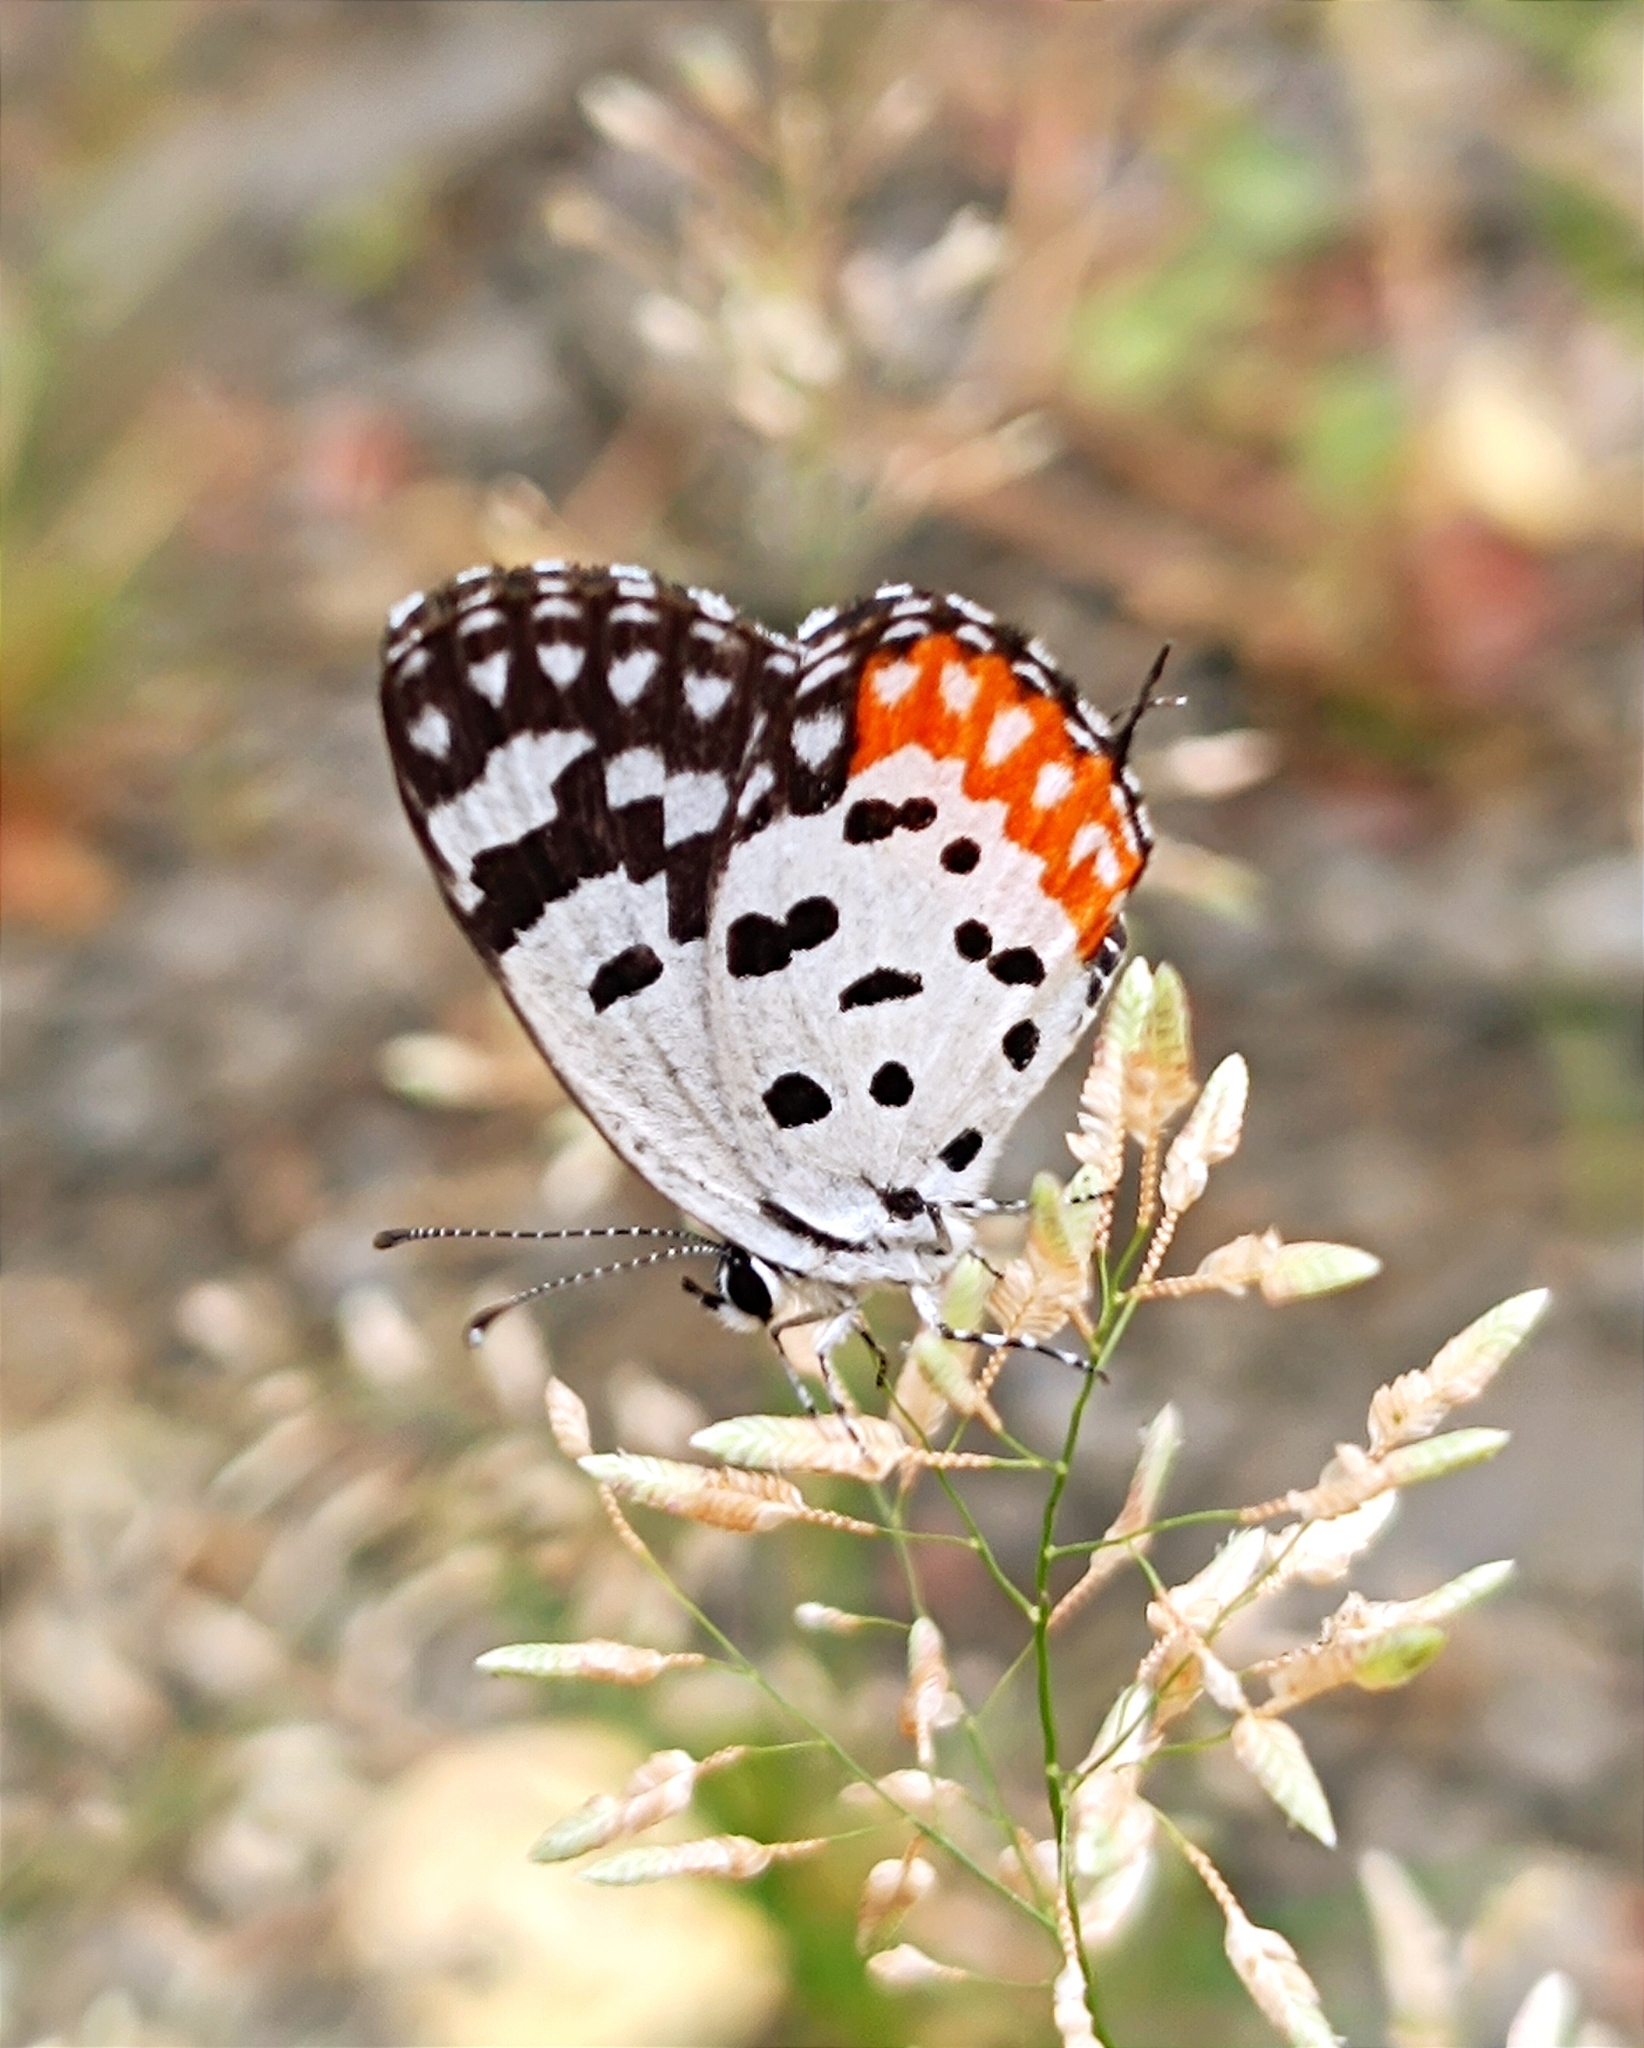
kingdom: Animalia
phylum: Arthropoda
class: Insecta
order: Lepidoptera
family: Lycaenidae
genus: Talicada
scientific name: Talicada nyseus
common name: Red pierrot
